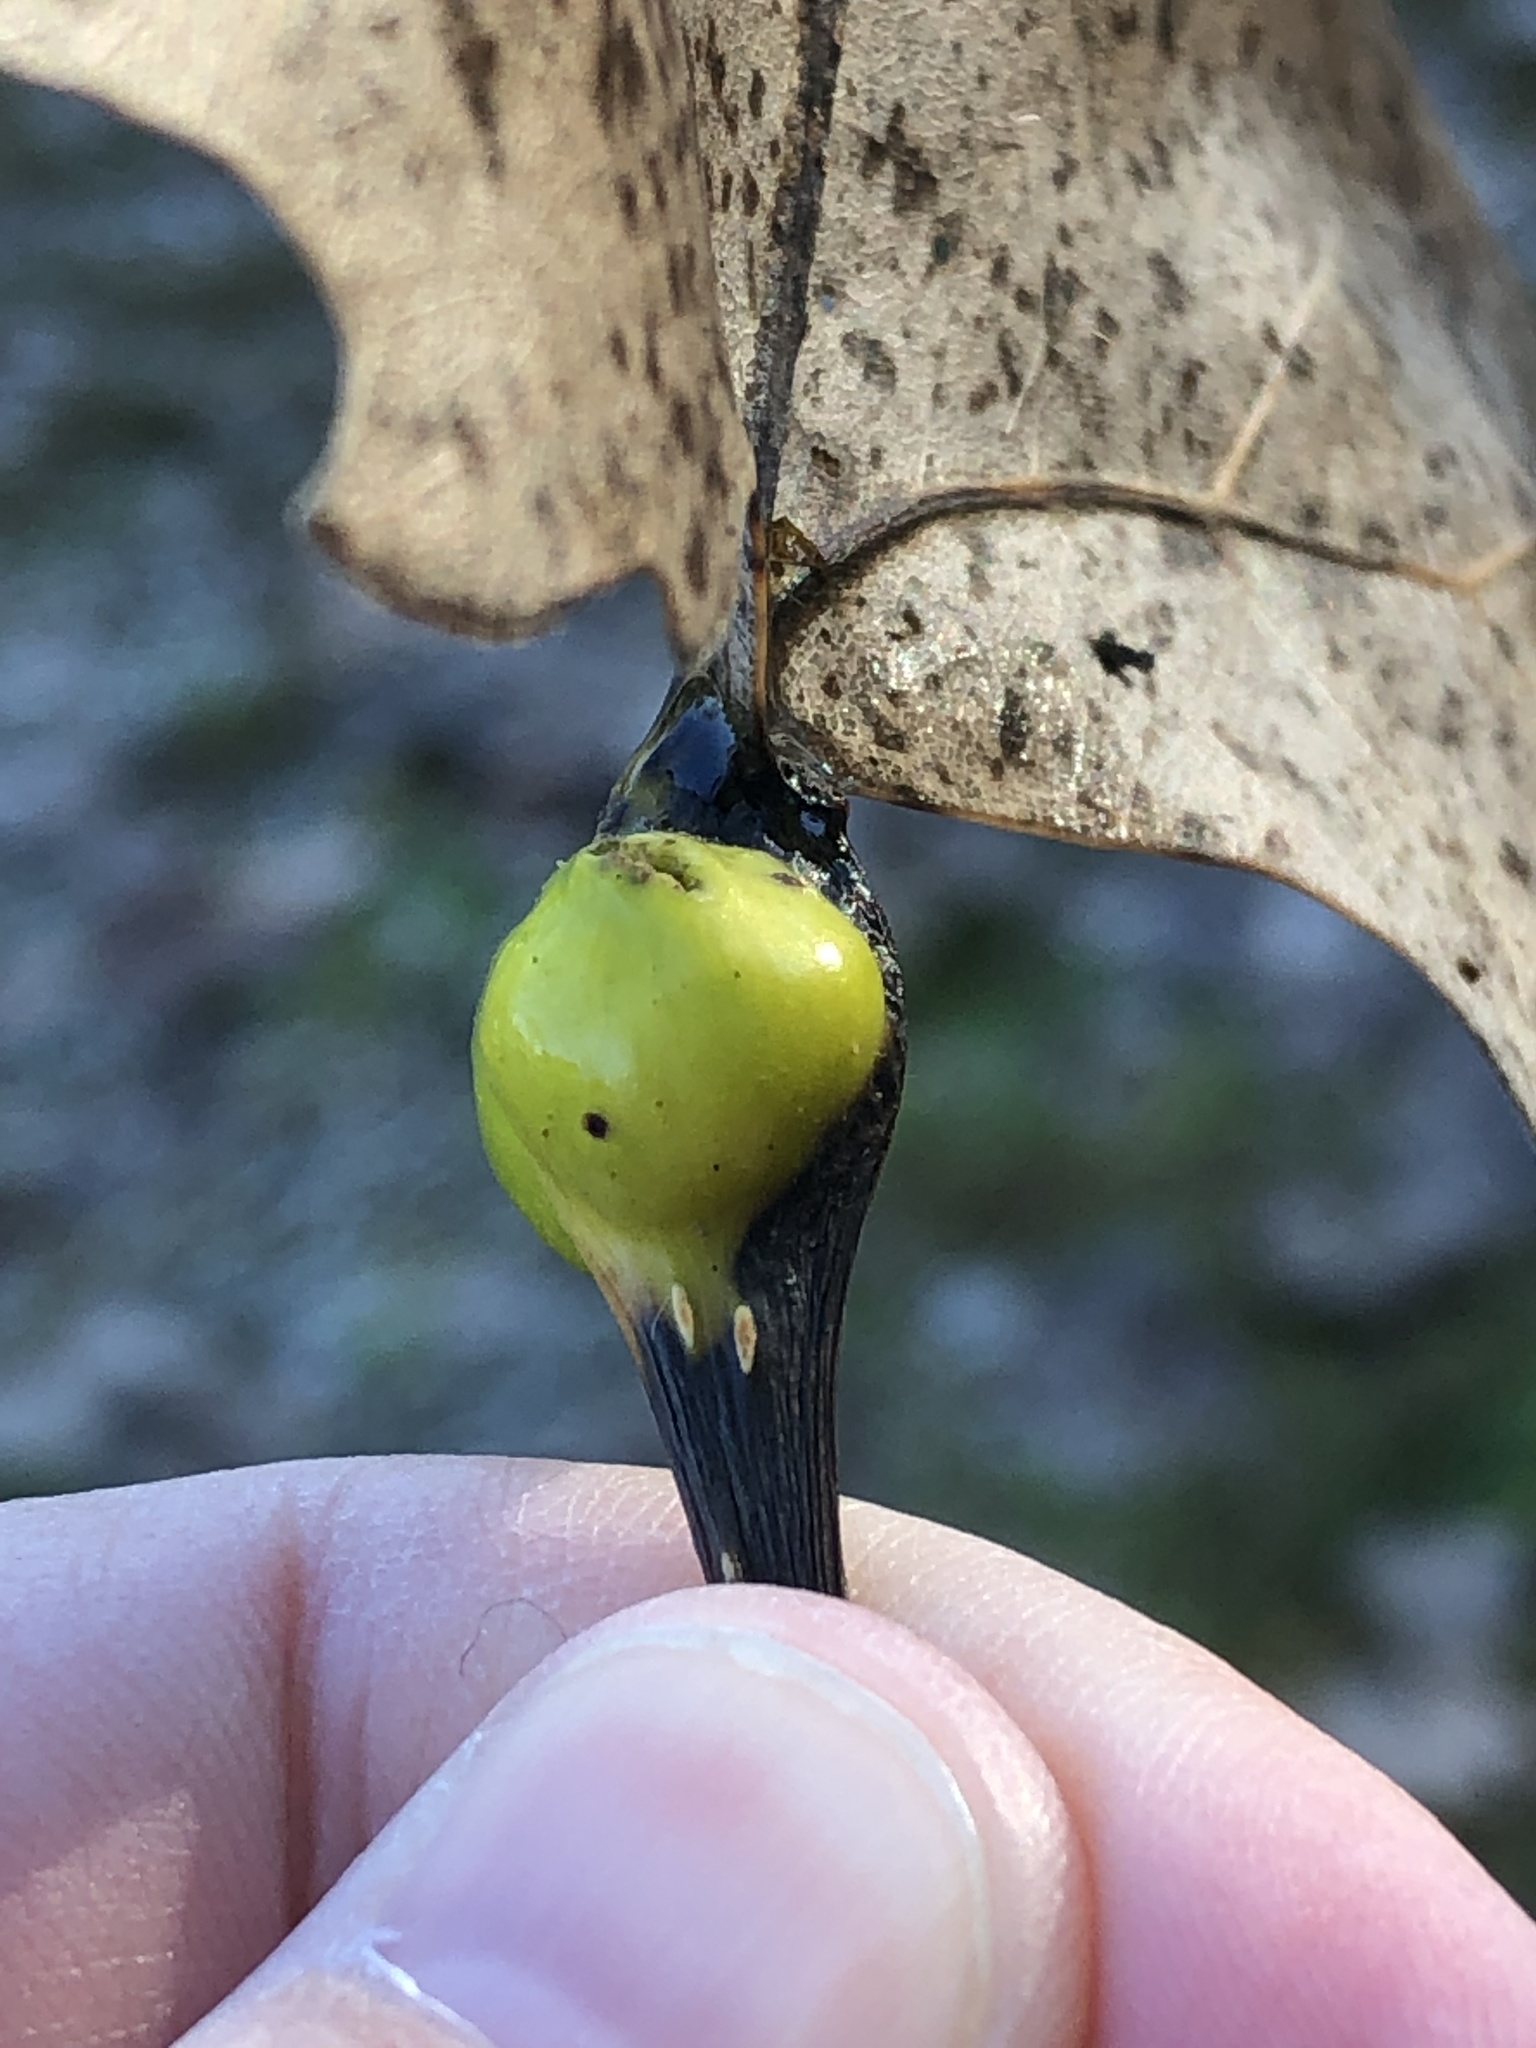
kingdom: Animalia
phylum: Arthropoda
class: Insecta
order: Hemiptera
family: Aphididae
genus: Pemphigus
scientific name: Pemphigus obesinymphae
